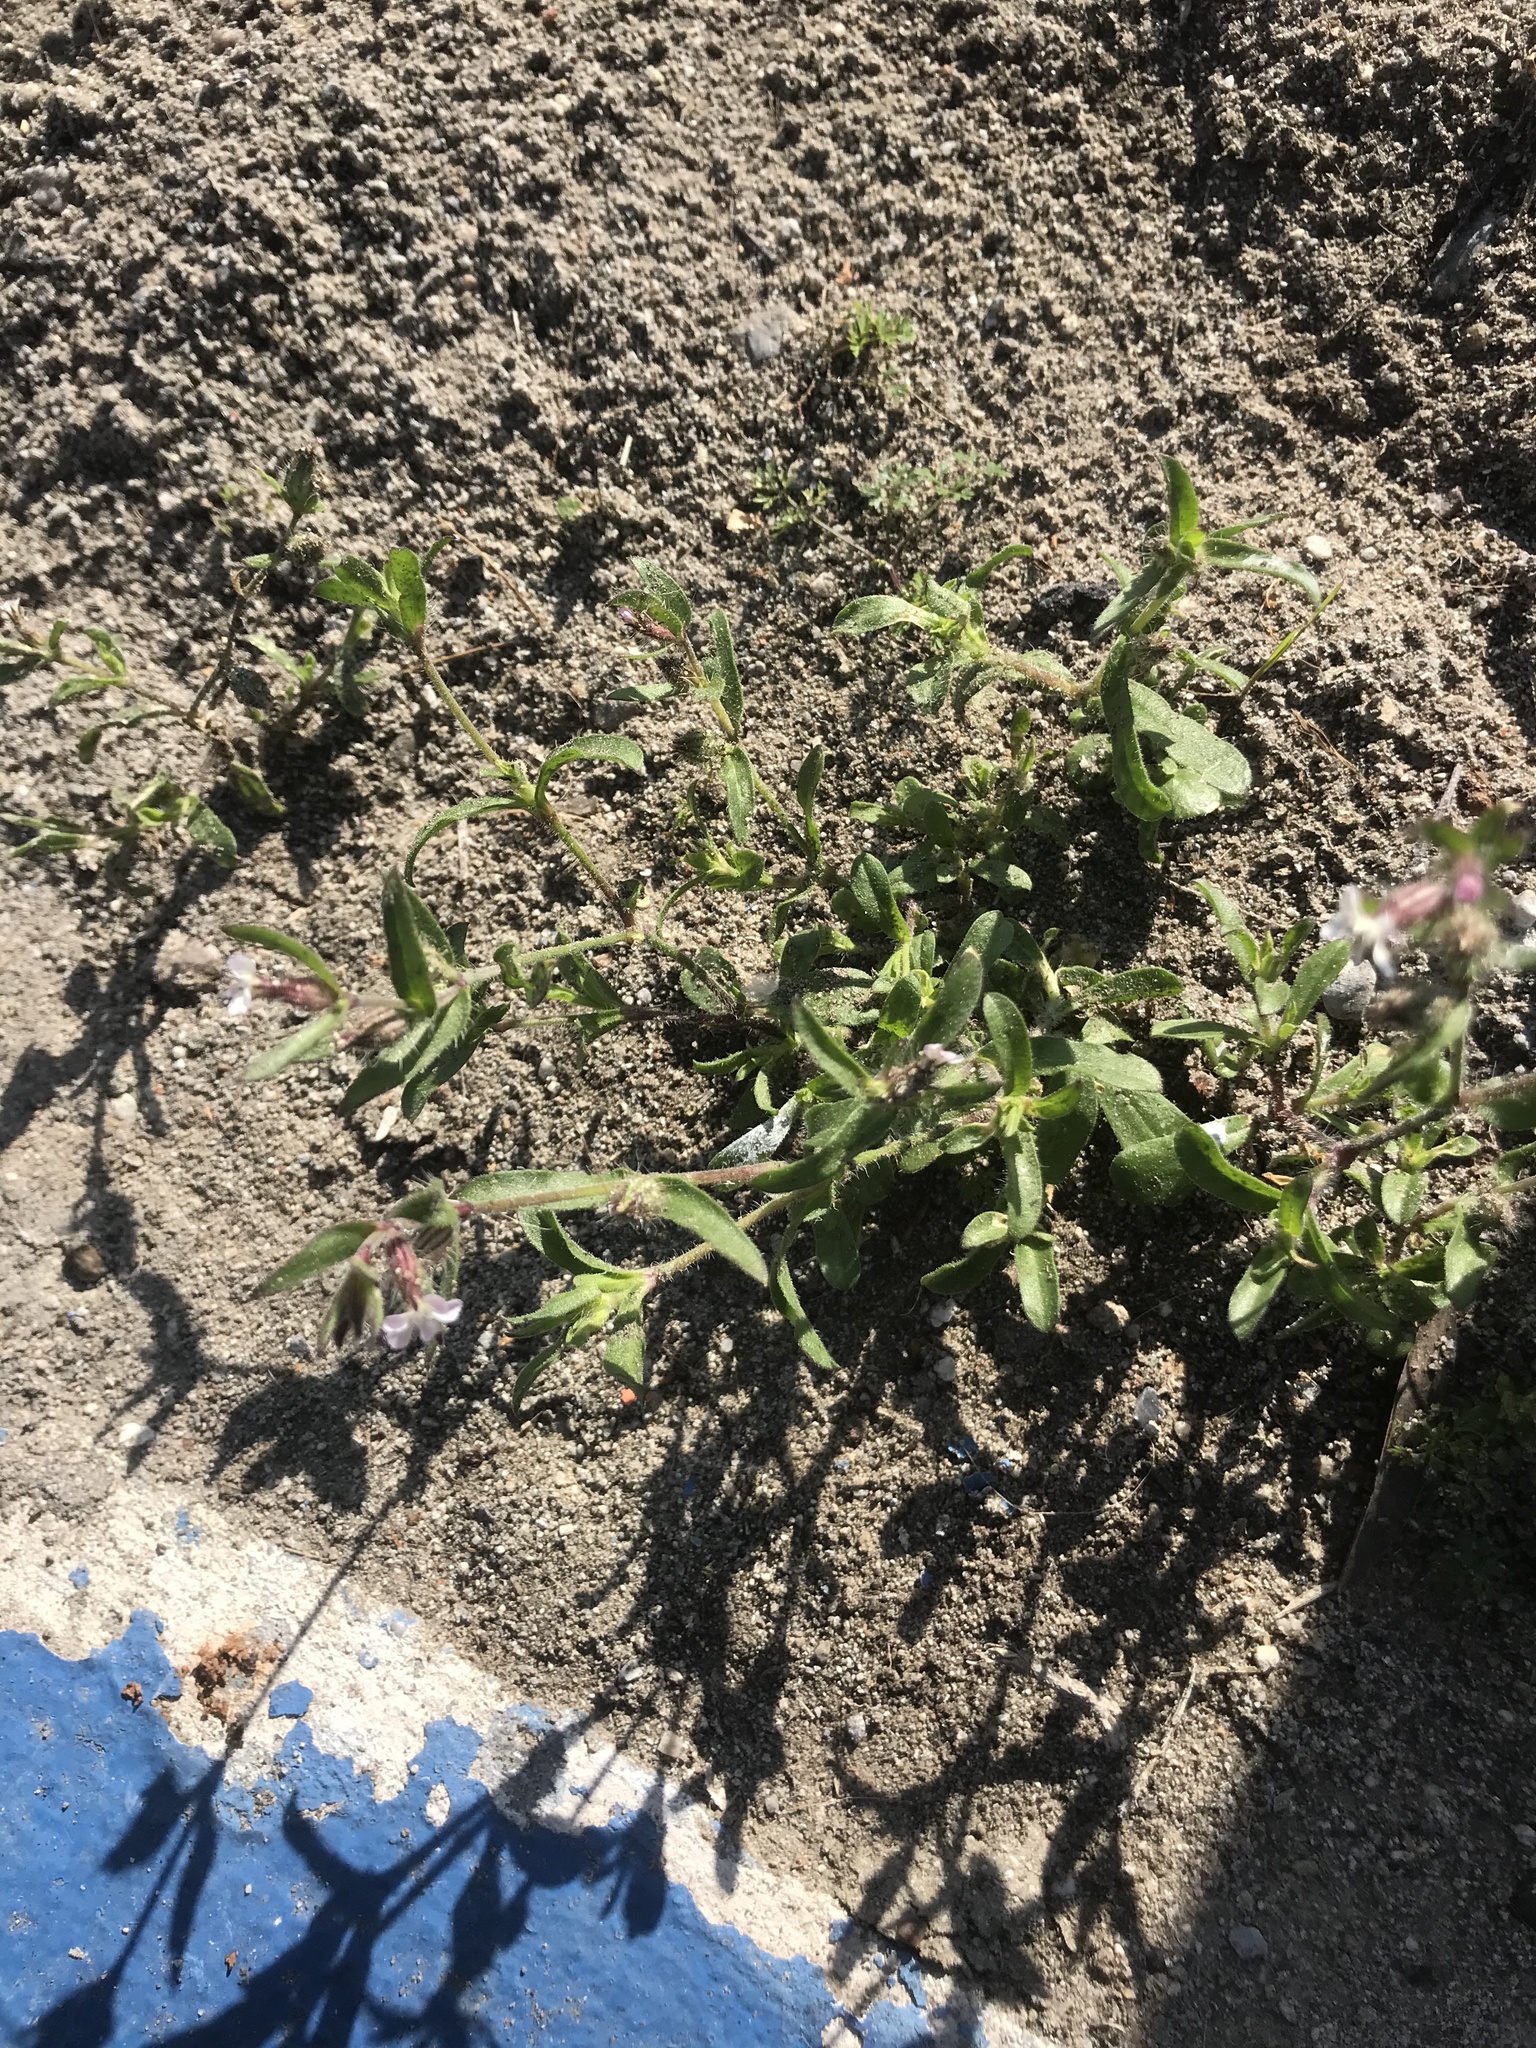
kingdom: Plantae
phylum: Tracheophyta
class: Magnoliopsida
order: Caryophyllales
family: Caryophyllaceae
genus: Silene
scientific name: Silene gallica
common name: Small-flowered catchfly
